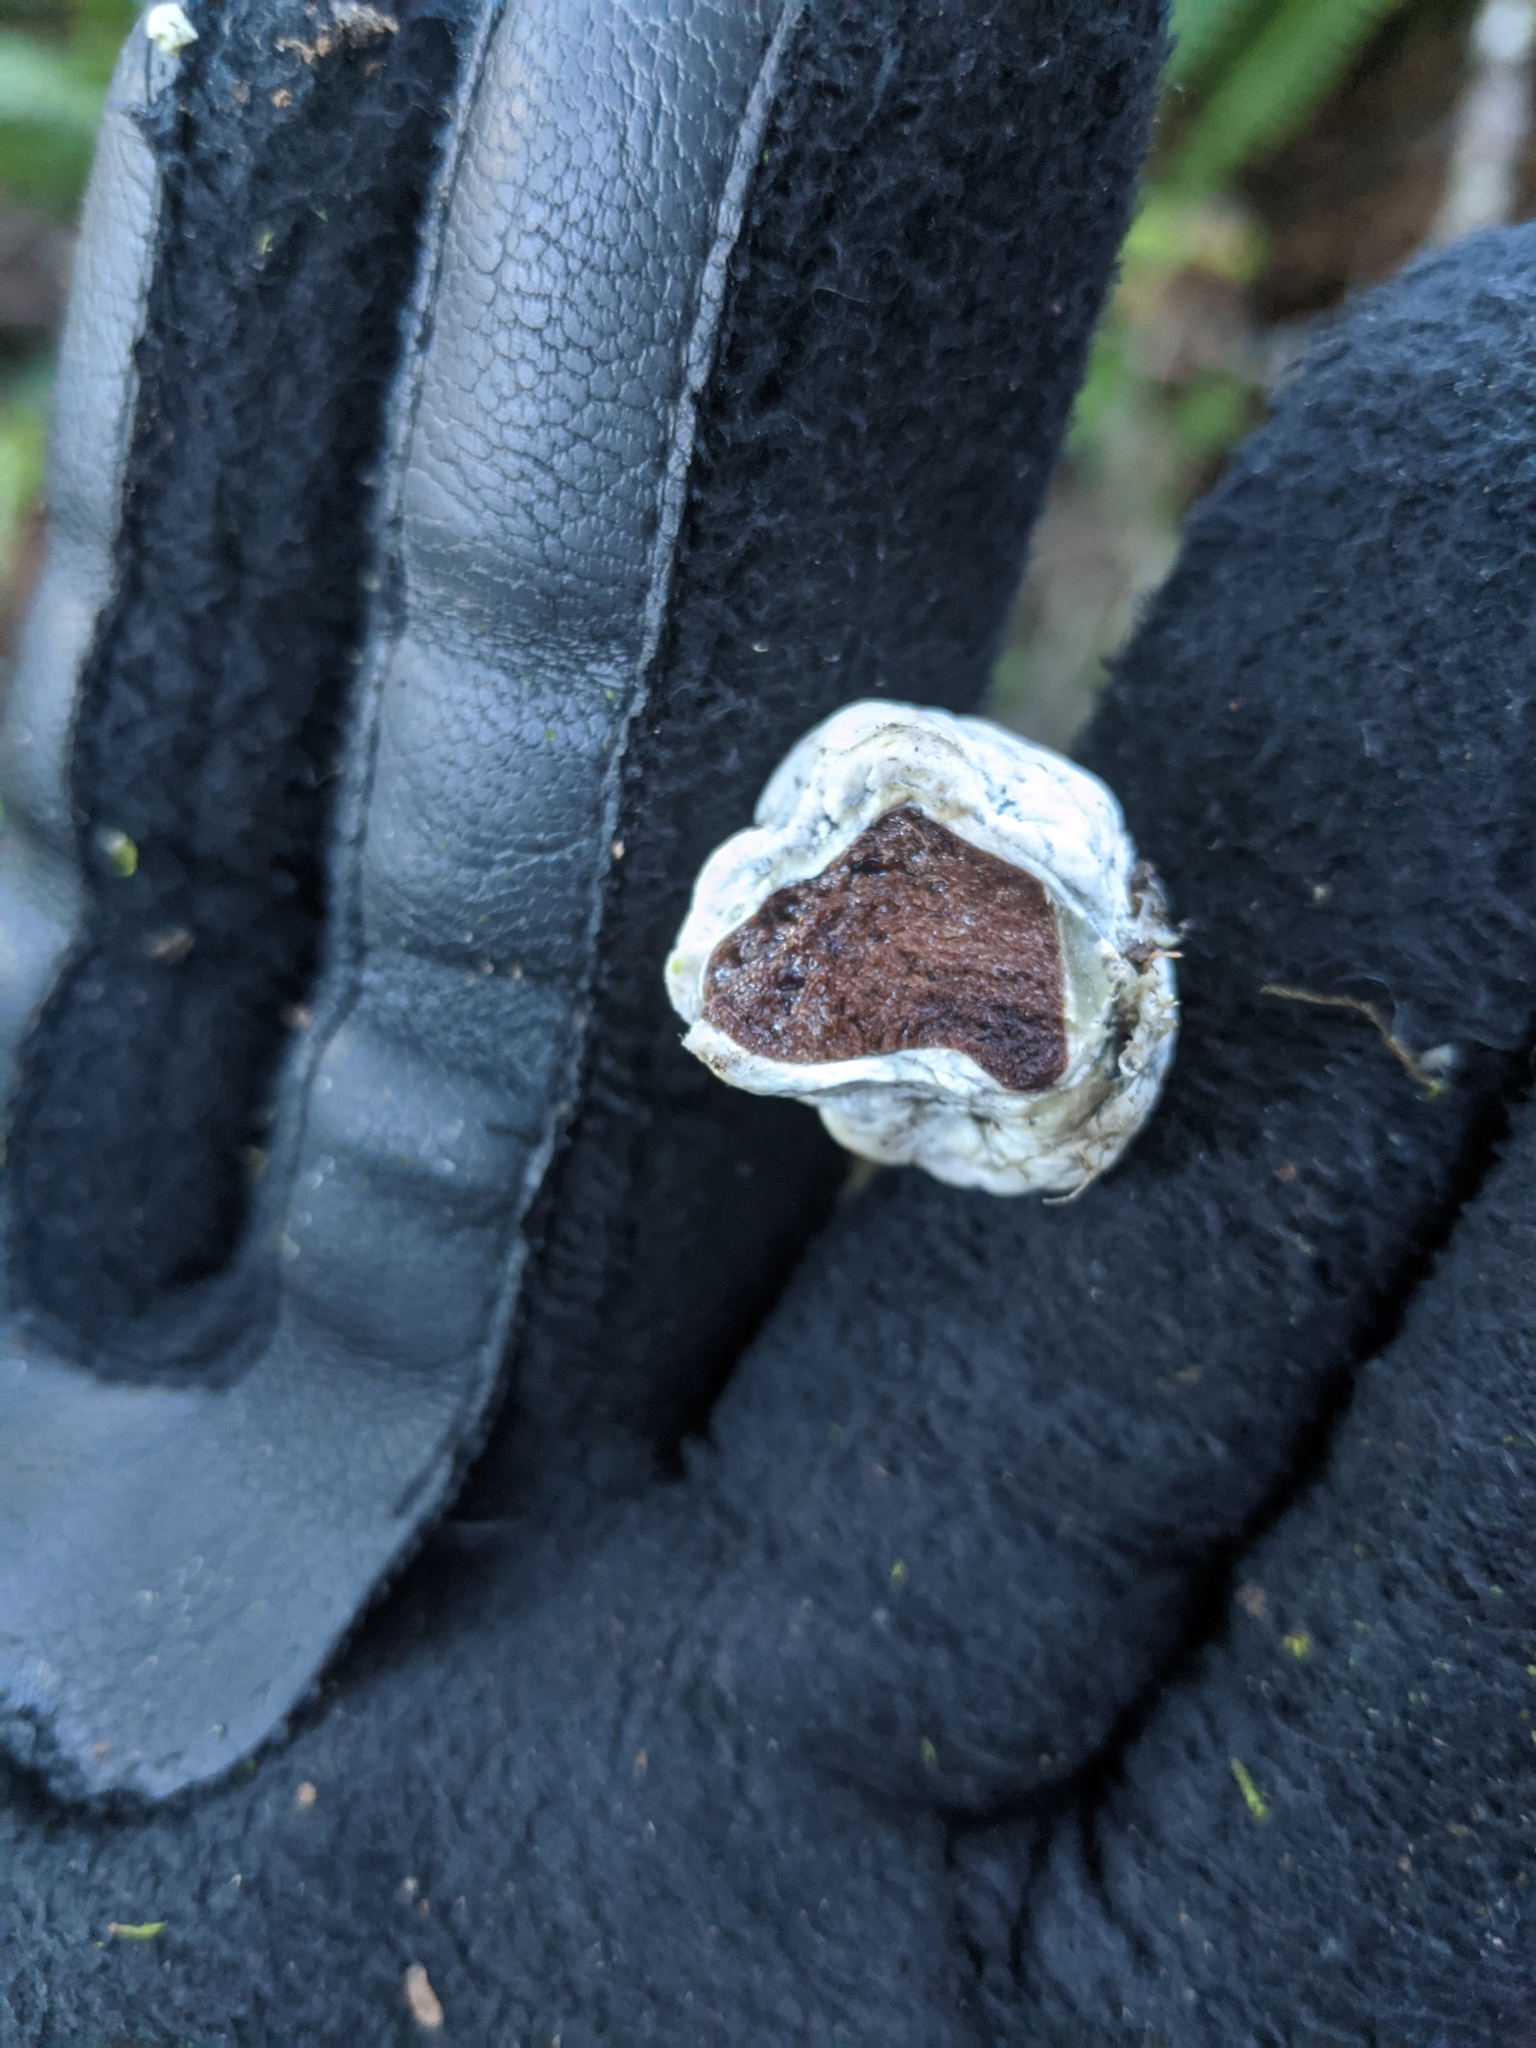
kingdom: Fungi
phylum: Basidiomycota
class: Agaricomycetes
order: Boletales
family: Boletaceae
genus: Leccinum
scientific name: Leccinum pachyderme
